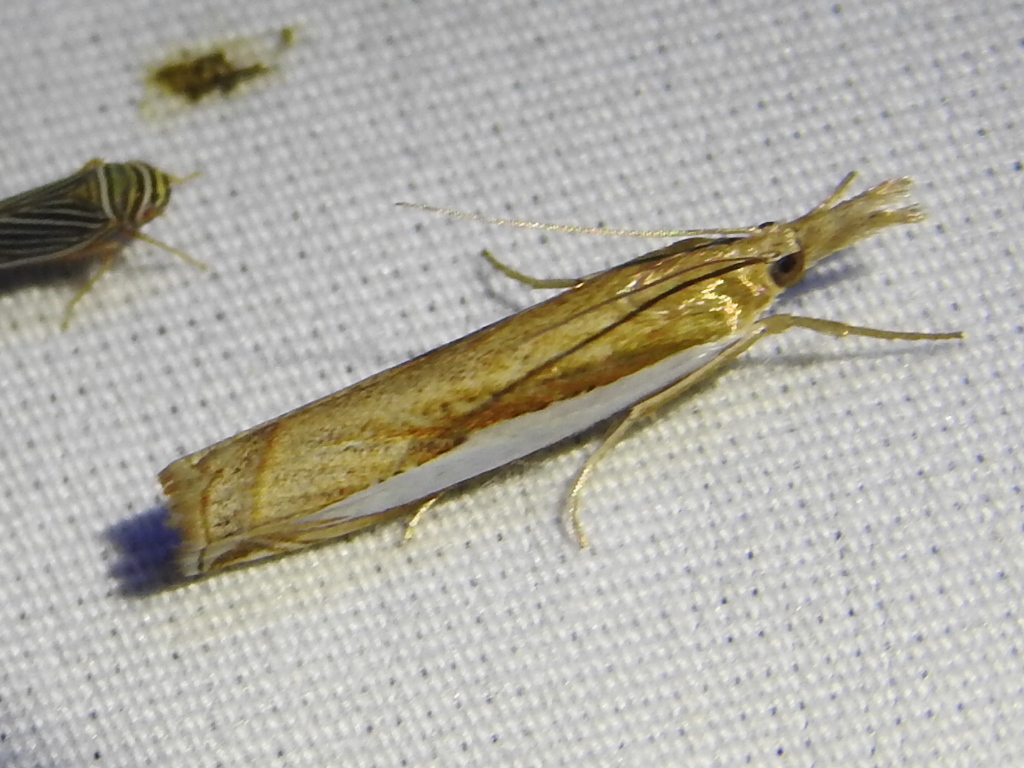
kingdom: Animalia
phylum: Arthropoda
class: Insecta
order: Lepidoptera
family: Crambidae
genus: Crambus
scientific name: Crambus leachellus
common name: Leach's grass-veneer
